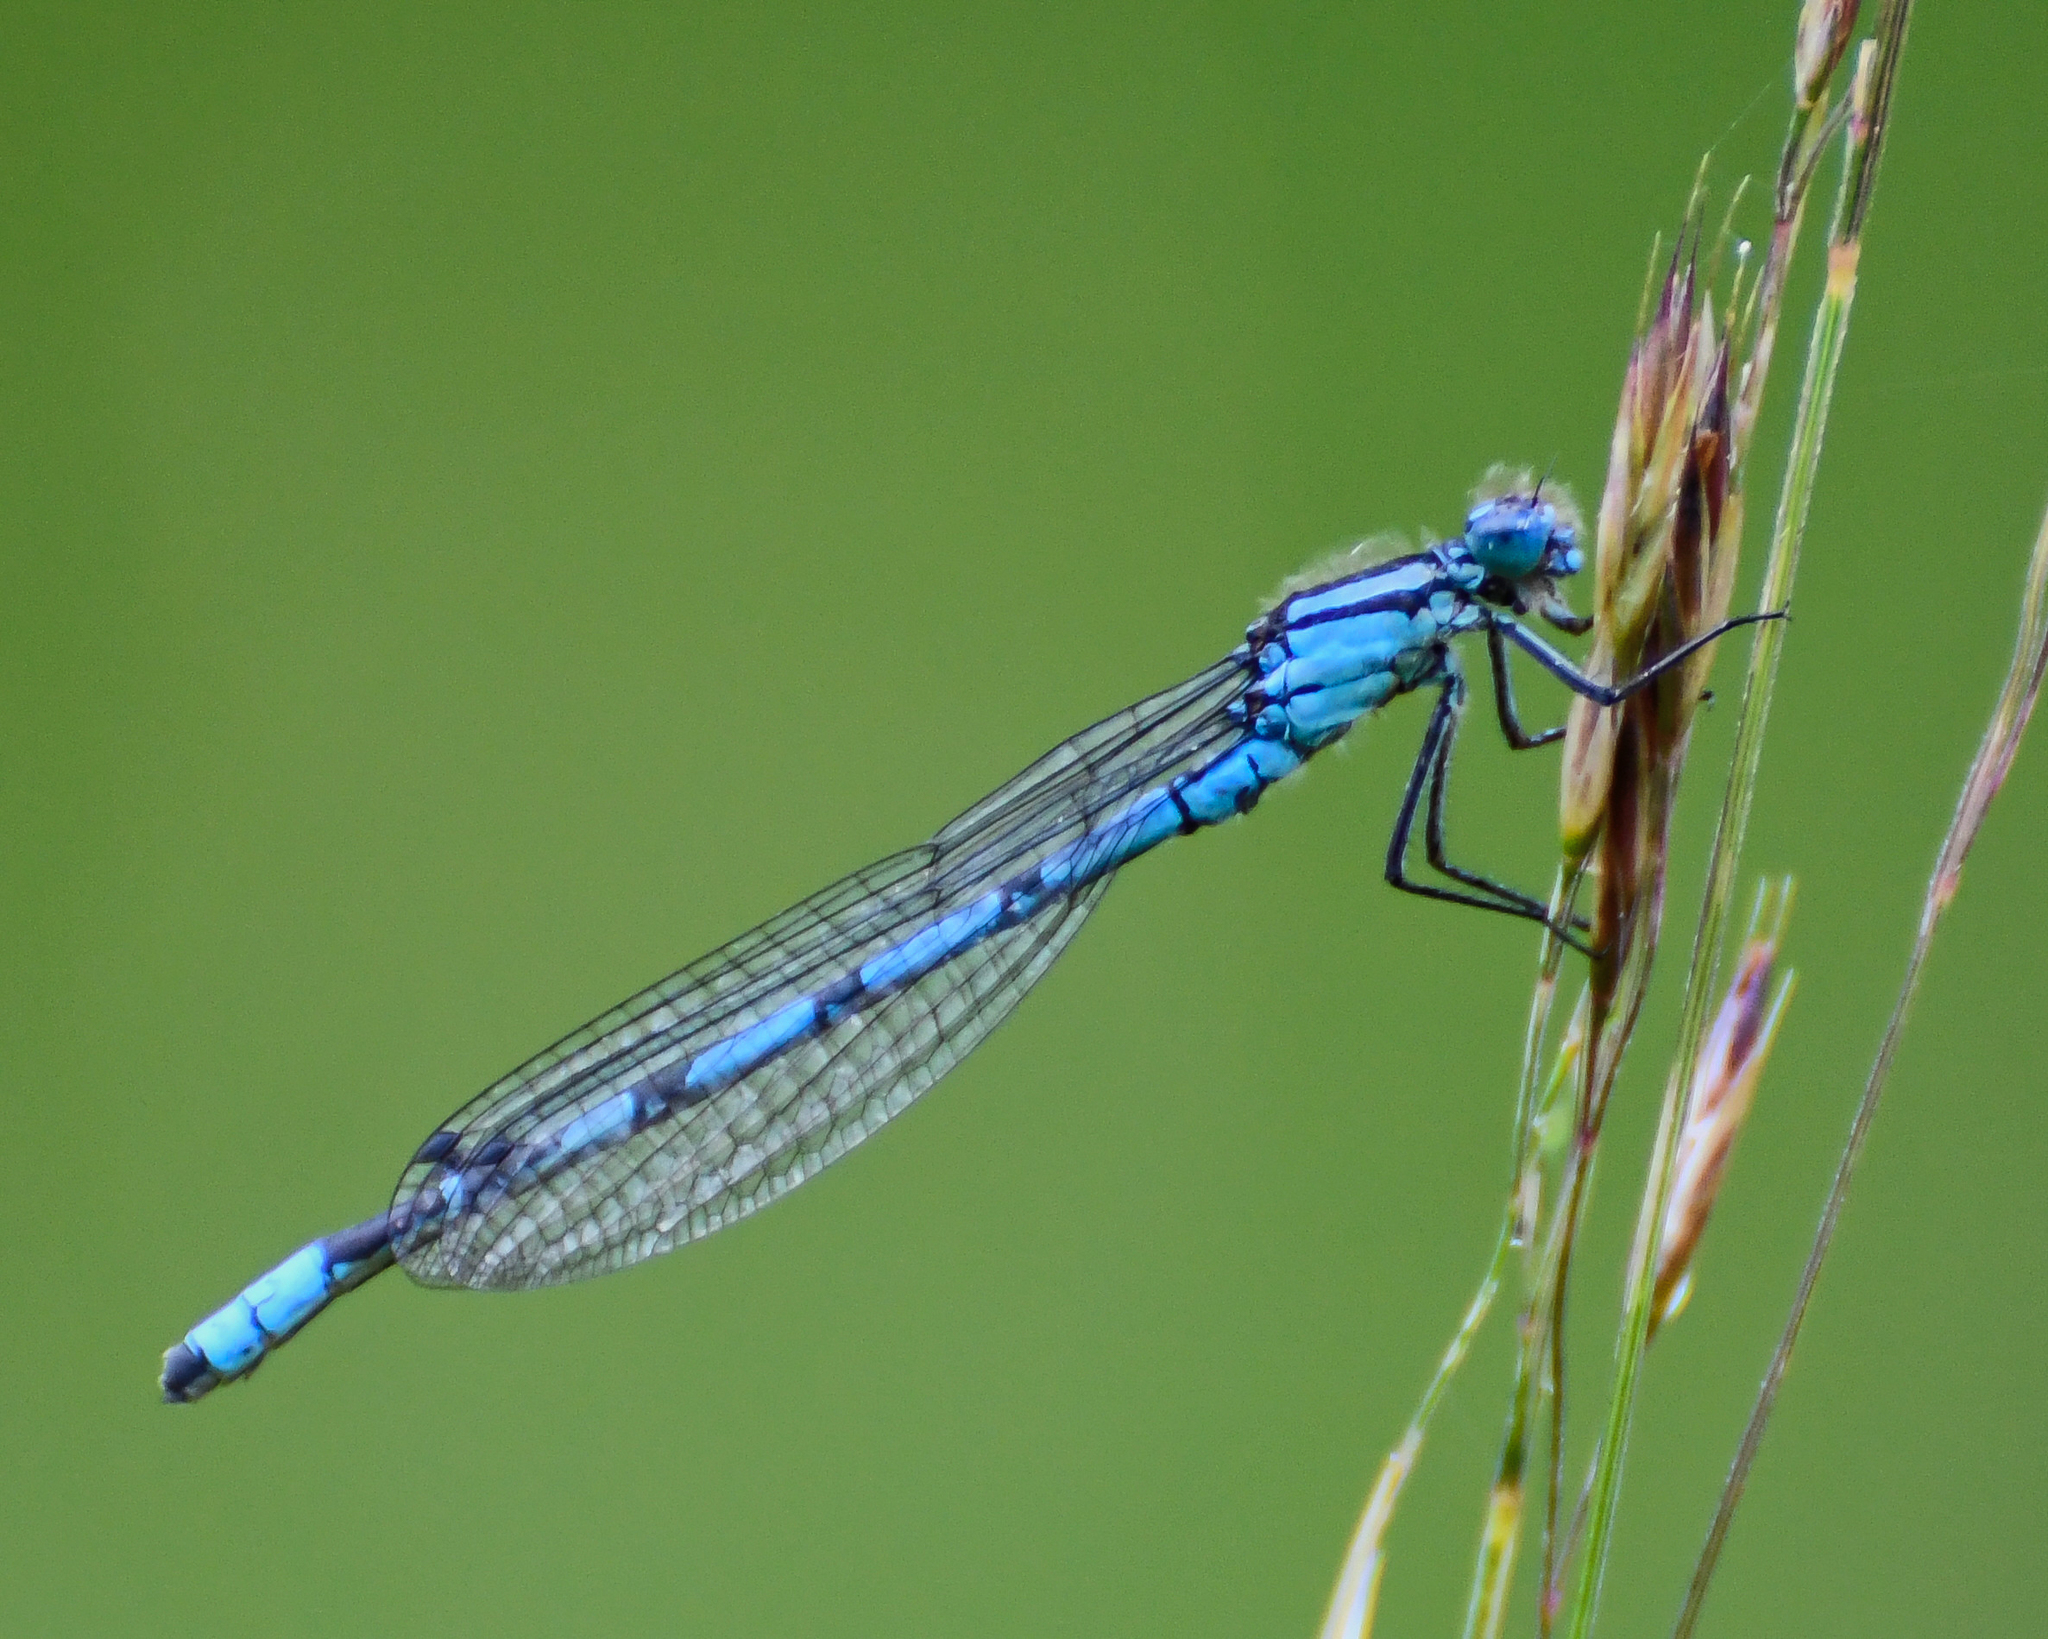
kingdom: Animalia
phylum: Arthropoda
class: Insecta
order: Odonata
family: Coenagrionidae
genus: Enallagma
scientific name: Enallagma cyathigerum
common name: Common blue damselfly
